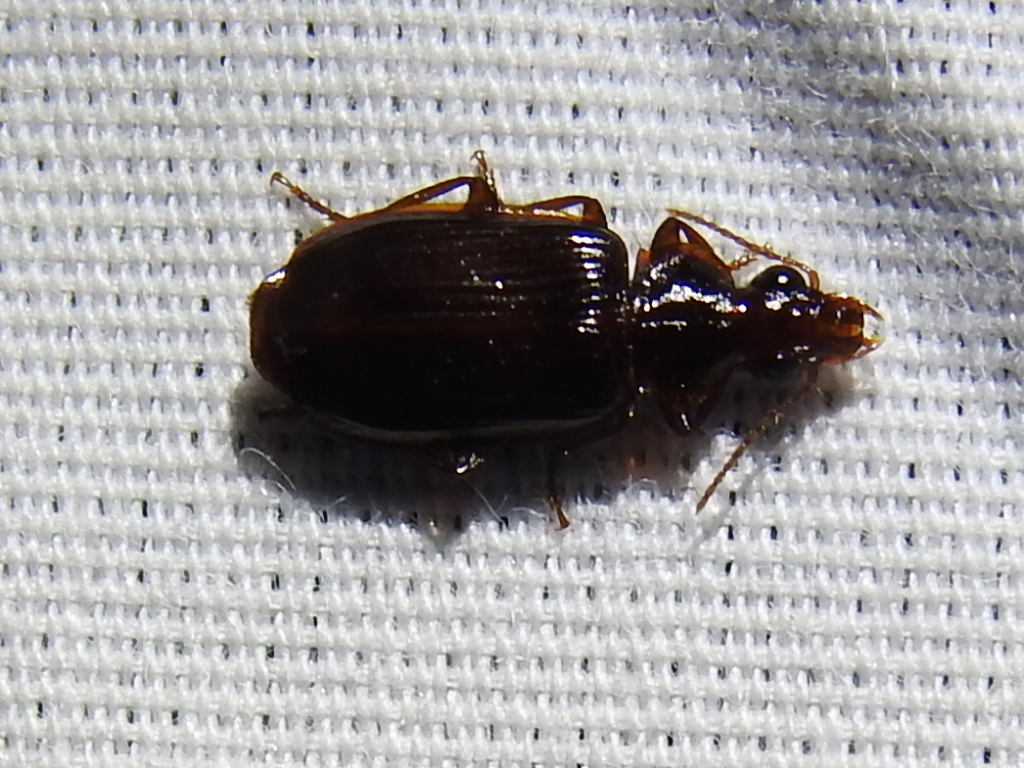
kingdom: Animalia
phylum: Arthropoda
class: Insecta
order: Coleoptera
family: Carabidae
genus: Plochionus
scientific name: Plochionus timidus
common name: Timid harp ground beetle
